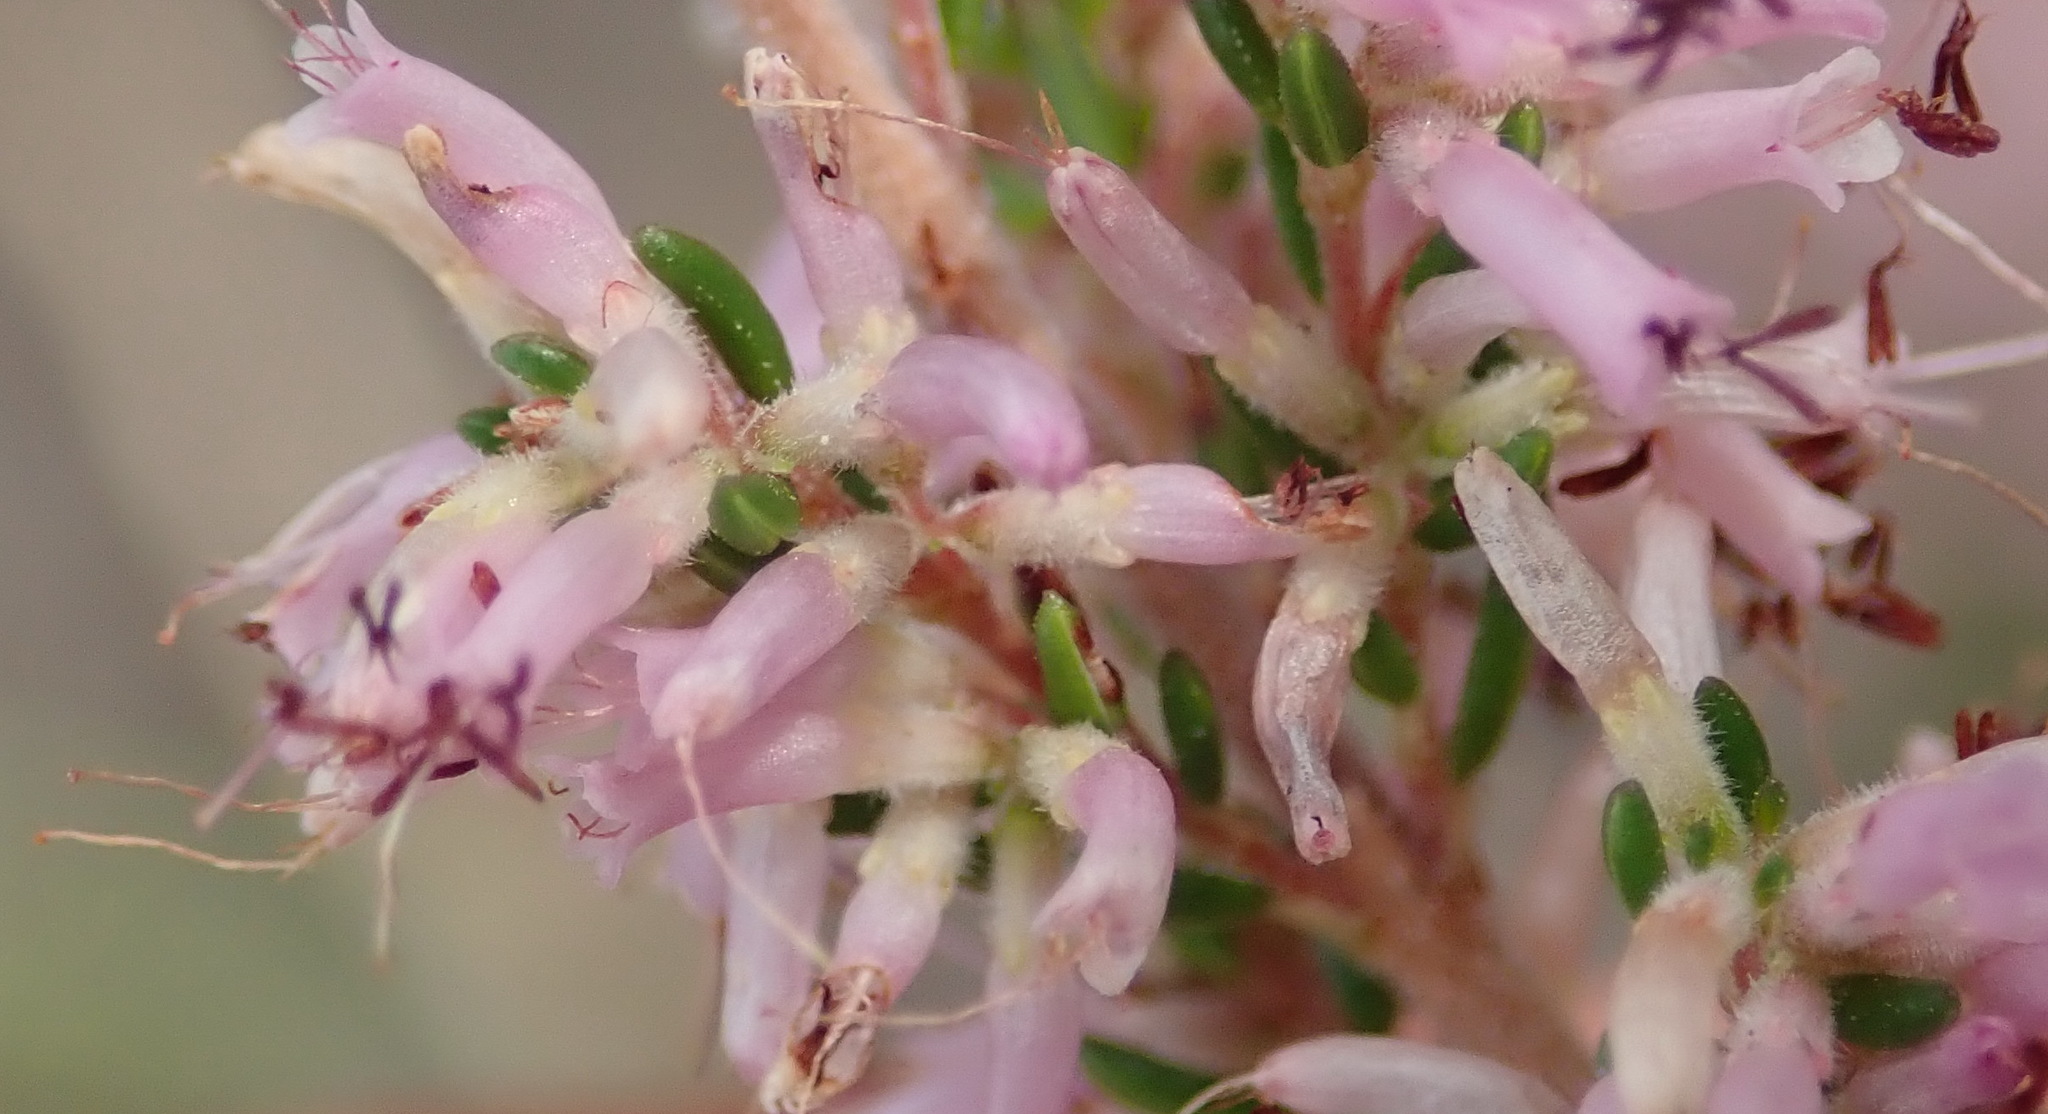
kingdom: Plantae
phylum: Tracheophyta
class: Magnoliopsida
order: Ericales
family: Ericaceae
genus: Erica
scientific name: Erica uberiflora
